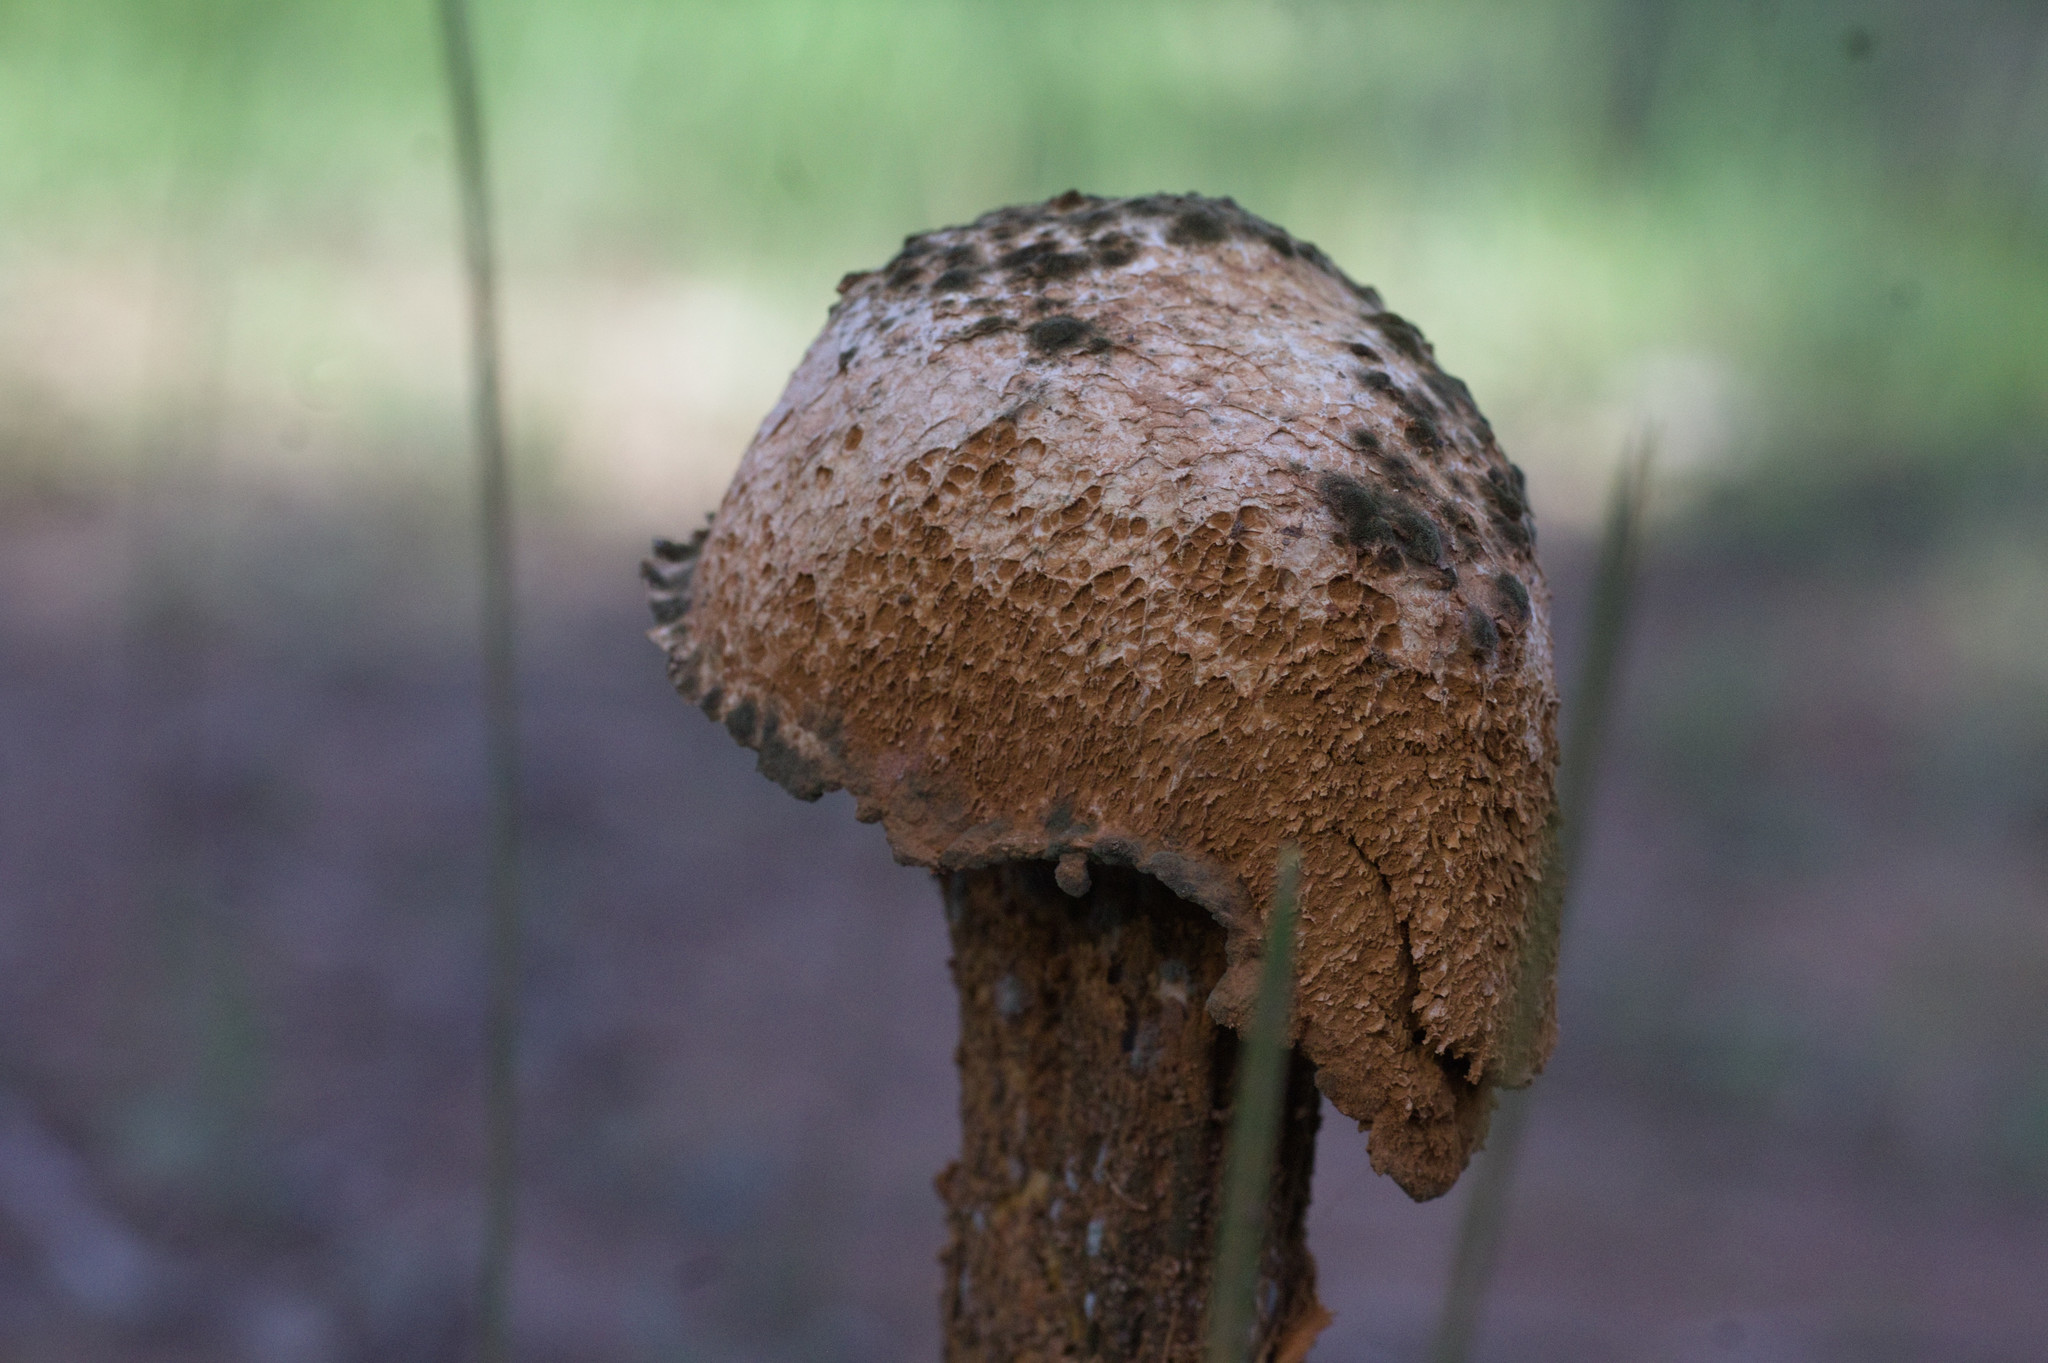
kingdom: Fungi
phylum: Basidiomycota
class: Agaricomycetes
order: Agaricales
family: Agaricaceae
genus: Battarrea
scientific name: Battarrea phalloides
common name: Sandy stiltball
